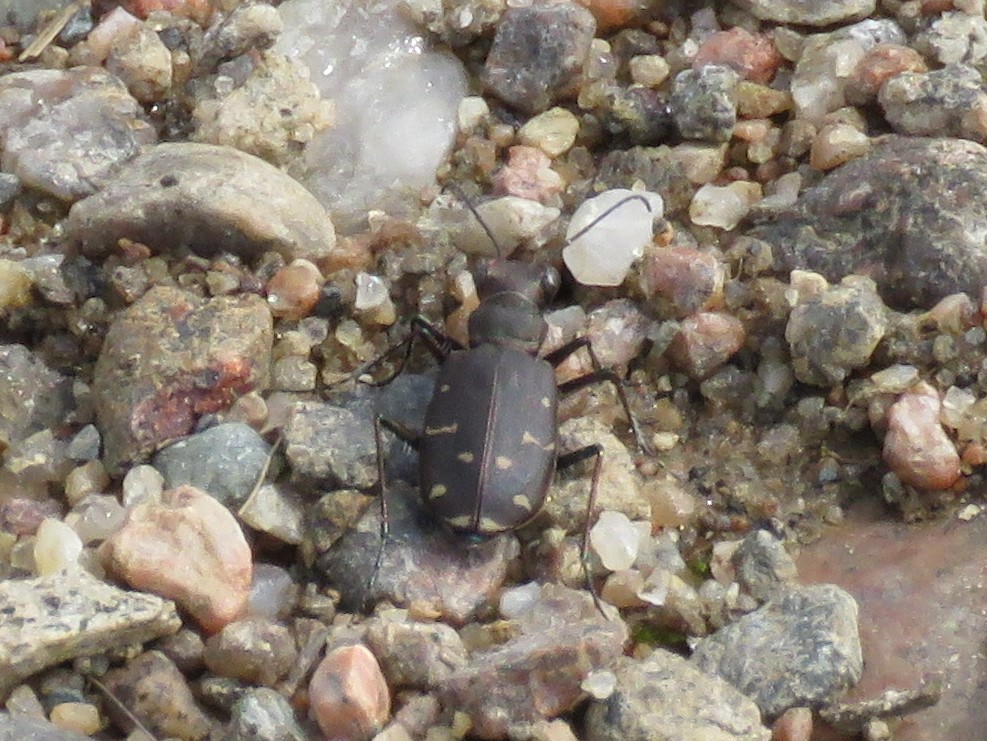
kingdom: Animalia
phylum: Arthropoda
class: Insecta
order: Coleoptera
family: Carabidae
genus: Cicindela
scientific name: Cicindela duodecimguttata
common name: Twelve-spotted tiger beetle
